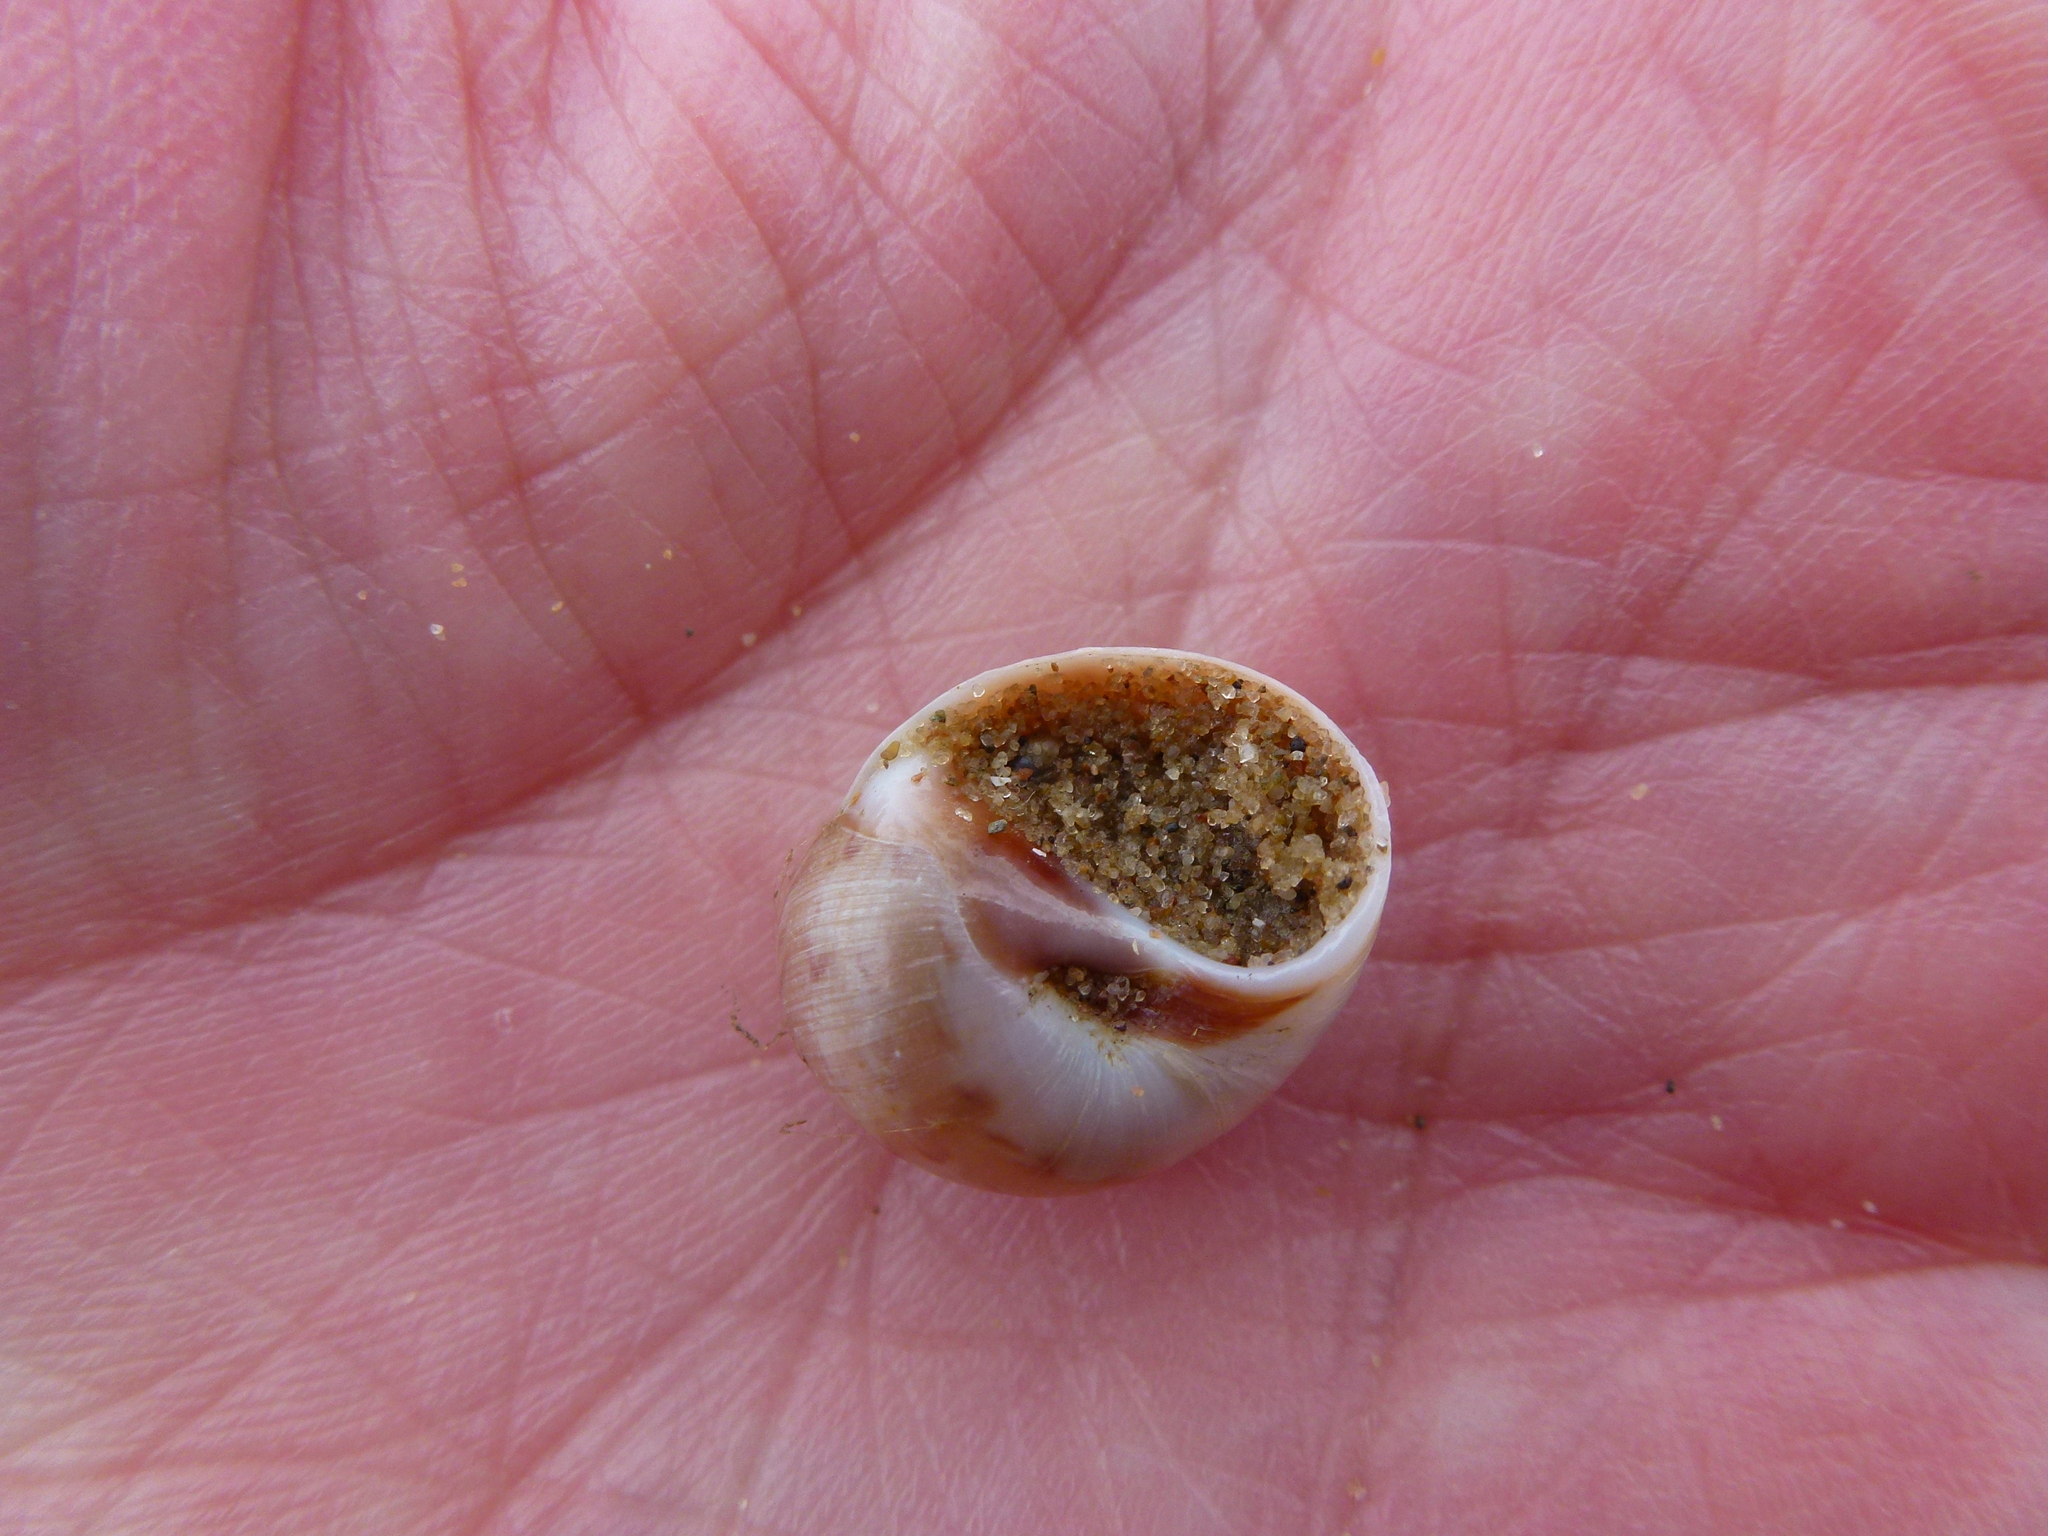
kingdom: Animalia
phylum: Mollusca
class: Gastropoda
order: Littorinimorpha
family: Naticidae
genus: Euspira
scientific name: Euspira nitida
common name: Alder's necklace shell
